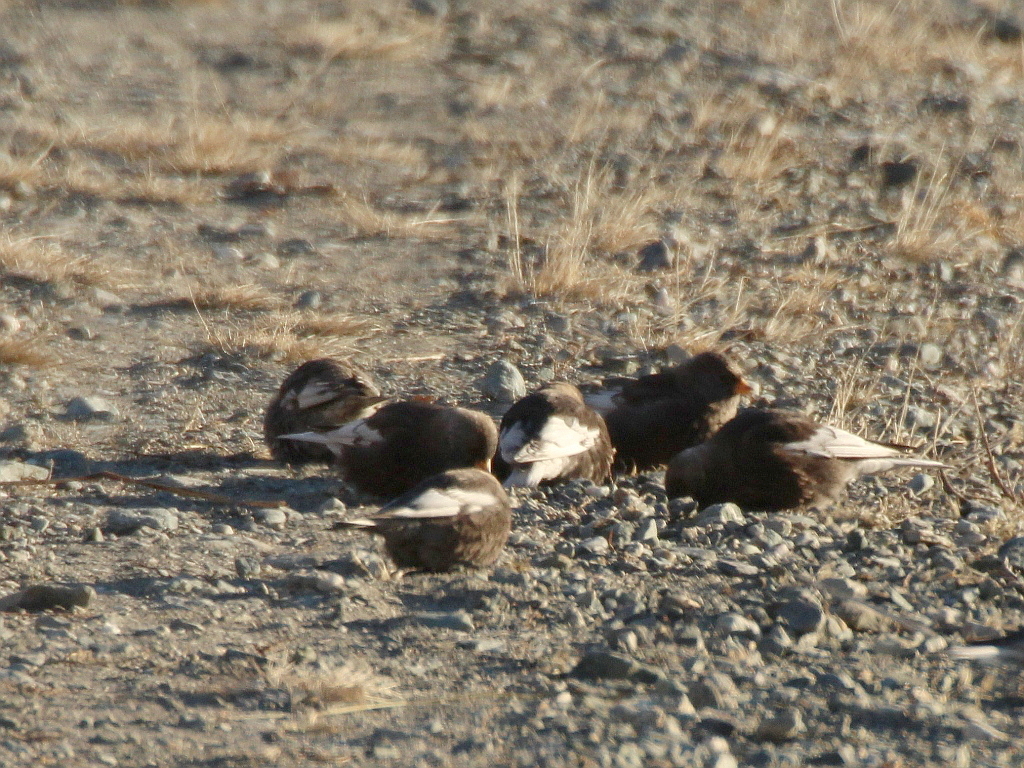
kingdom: Animalia
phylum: Chordata
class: Aves
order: Passeriformes
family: Fringillidae
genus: Leucosticte
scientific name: Leucosticte arctoa
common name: Asian rosy finch
